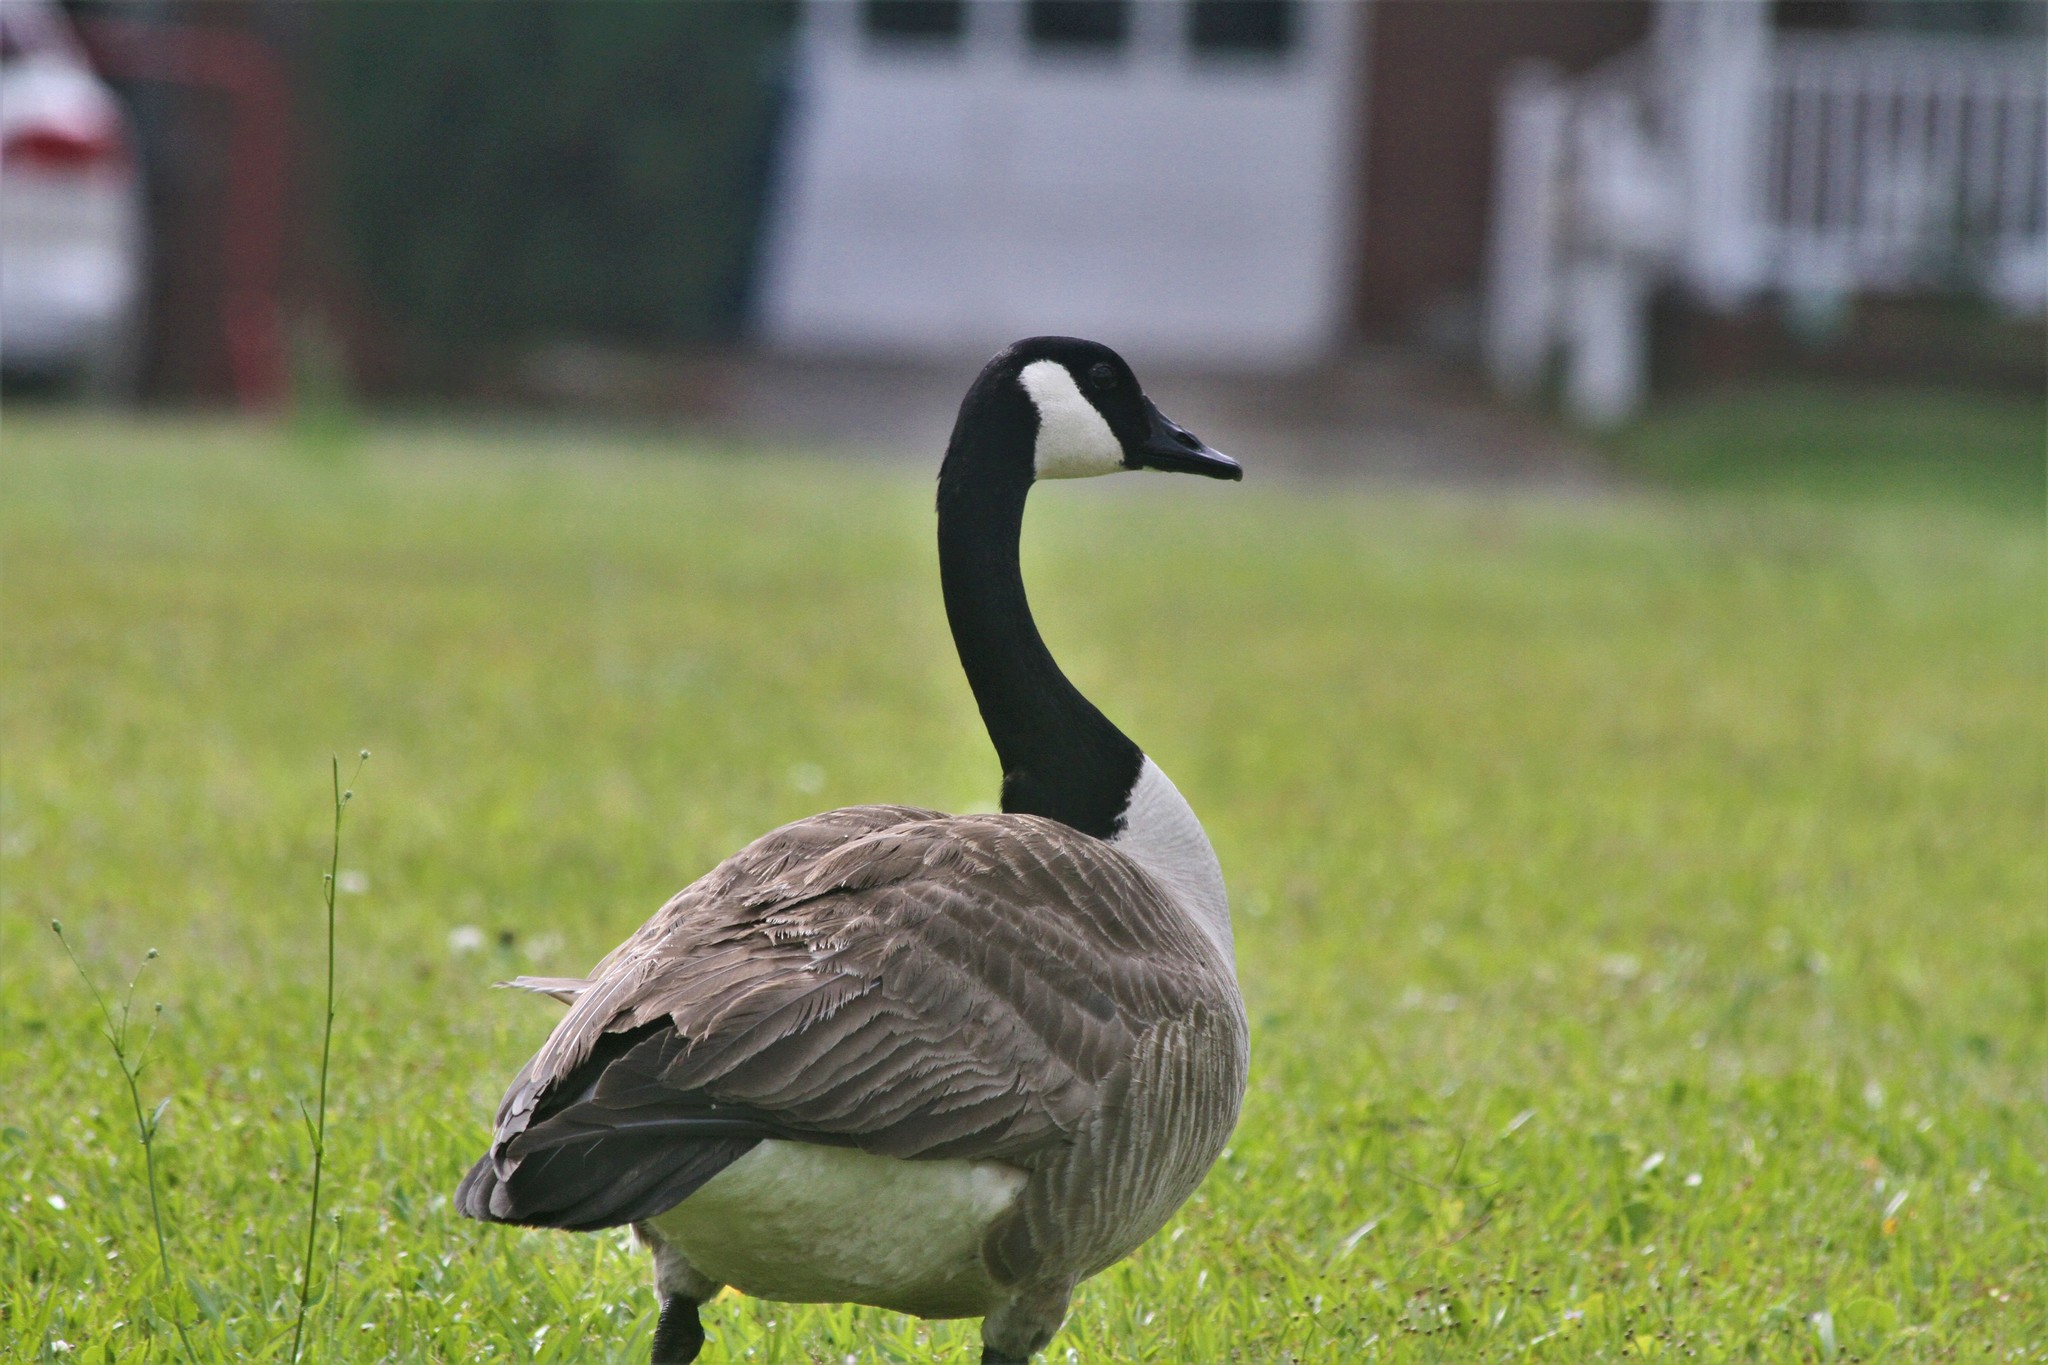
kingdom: Animalia
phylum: Chordata
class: Aves
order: Anseriformes
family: Anatidae
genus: Branta
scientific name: Branta canadensis
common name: Canada goose
